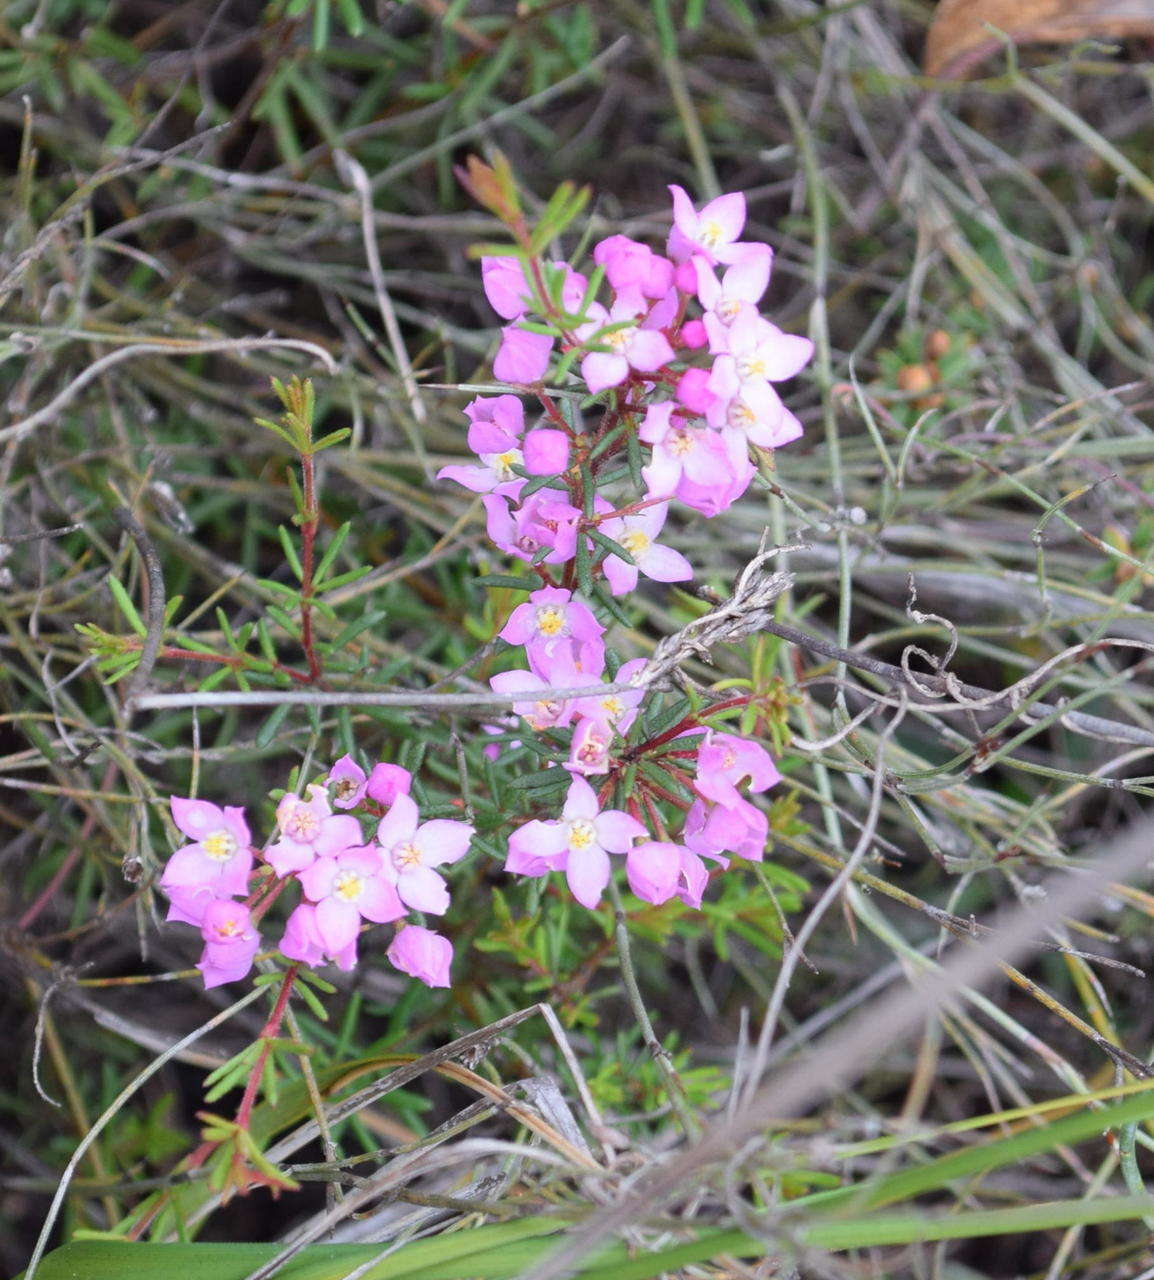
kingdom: Plantae
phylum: Tracheophyta
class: Magnoliopsida
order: Sapindales
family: Rutaceae
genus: Boronia
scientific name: Boronia pilosa
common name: Hairy boronia
